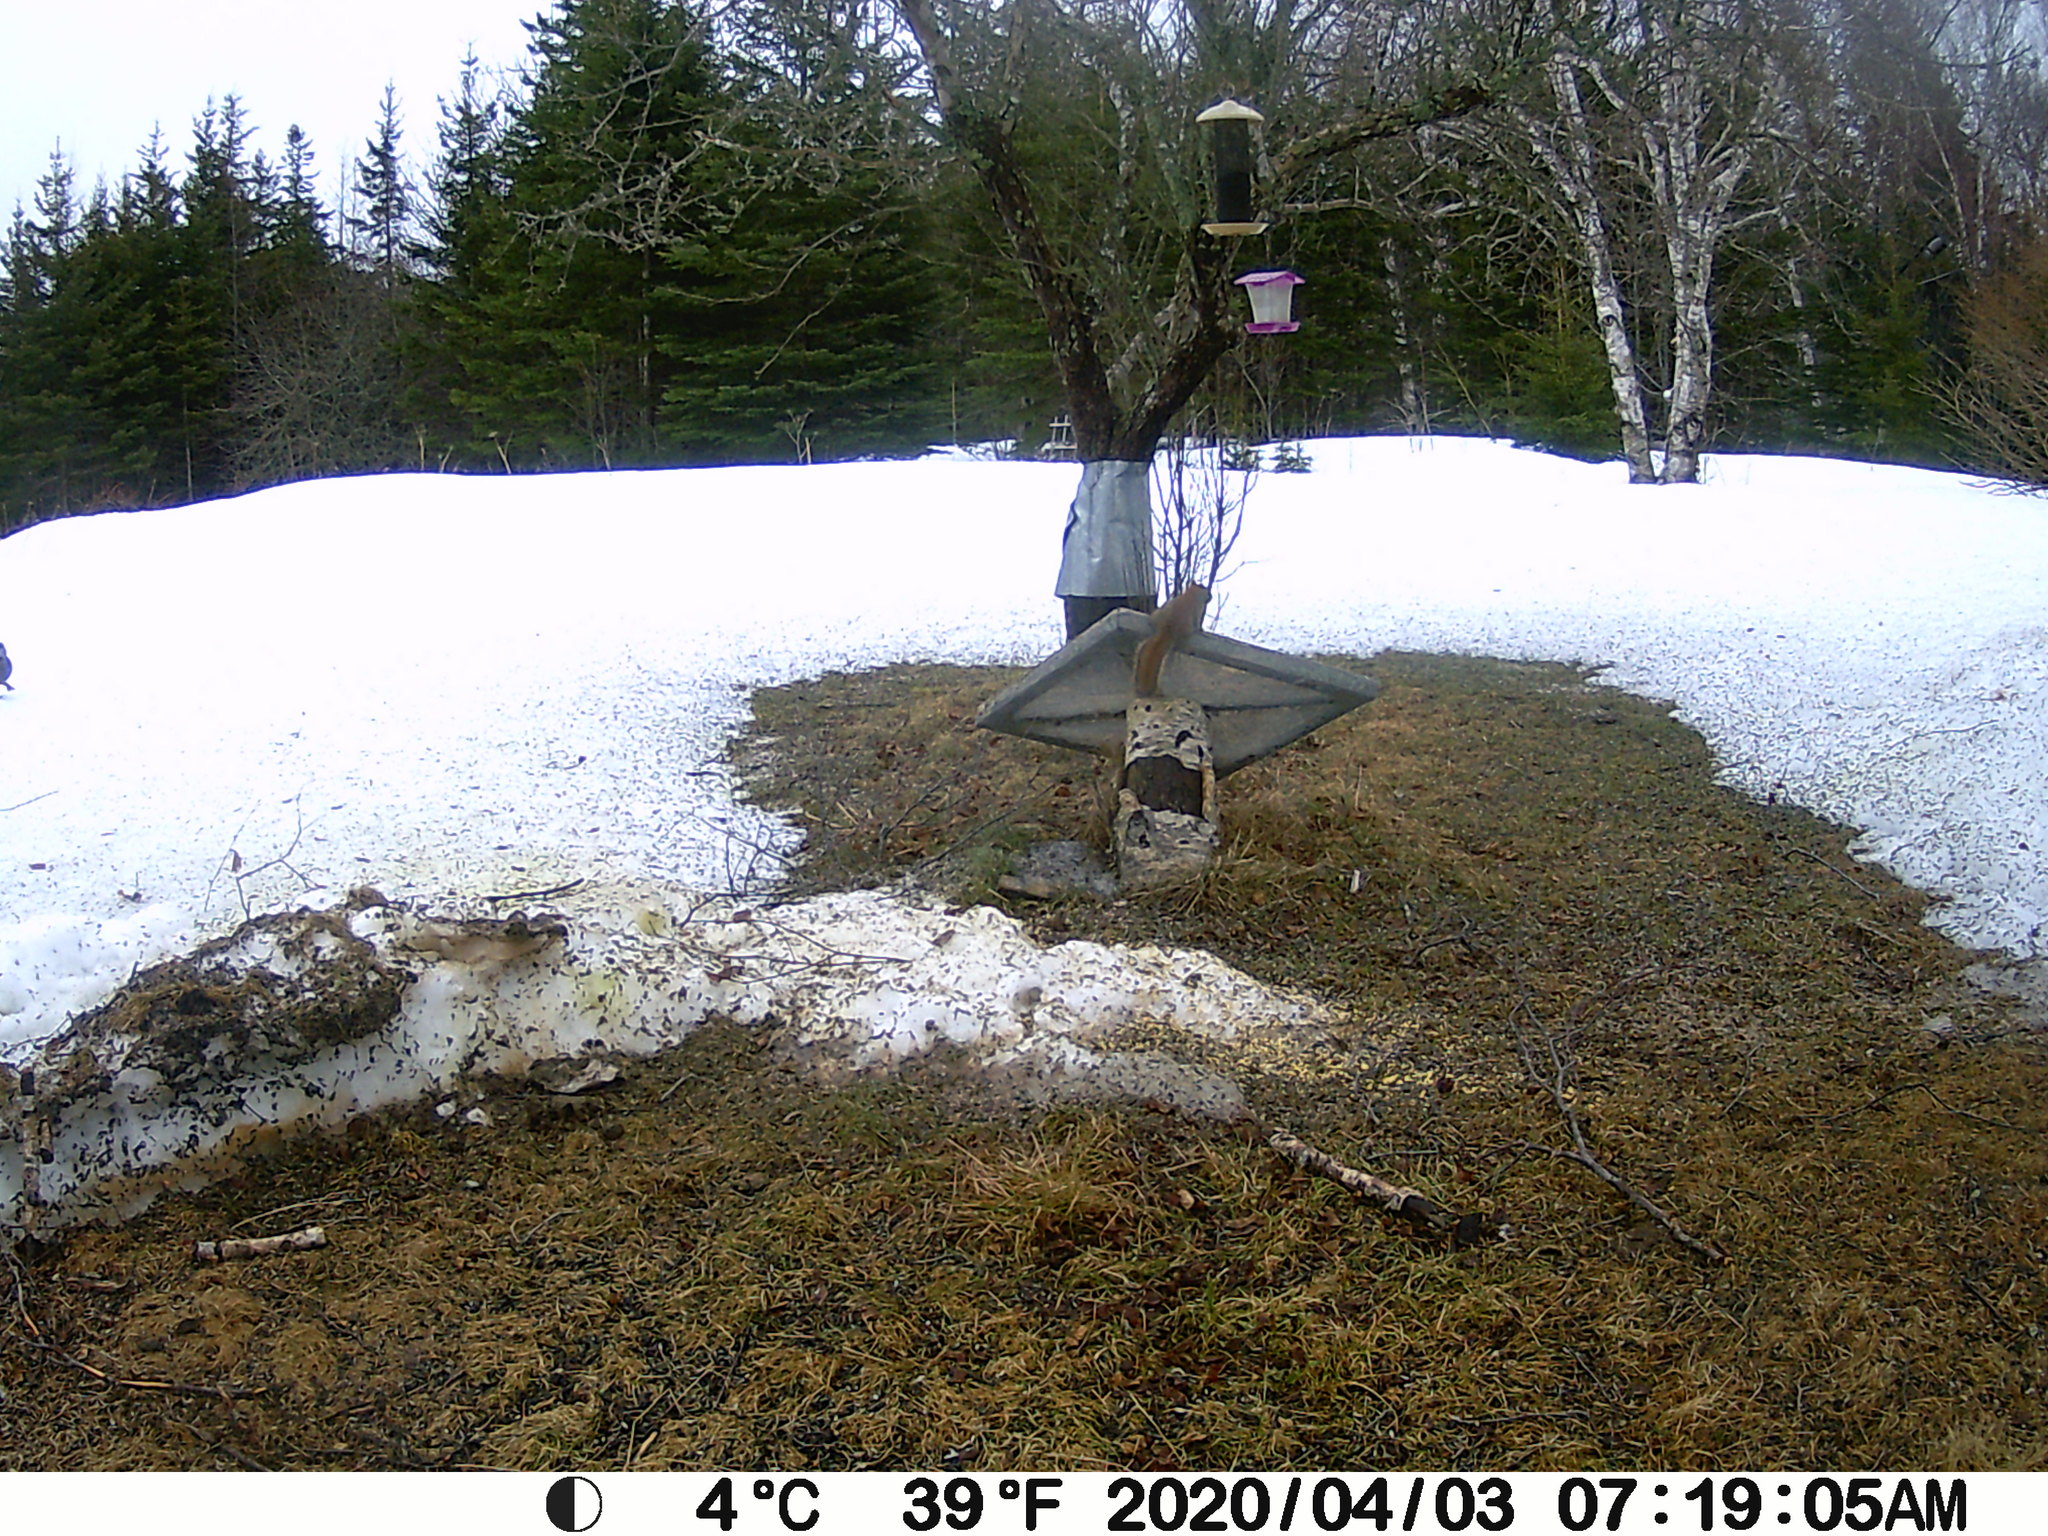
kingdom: Animalia
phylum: Chordata
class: Mammalia
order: Rodentia
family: Sciuridae
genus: Tamiasciurus
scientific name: Tamiasciurus hudsonicus
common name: Red squirrel
